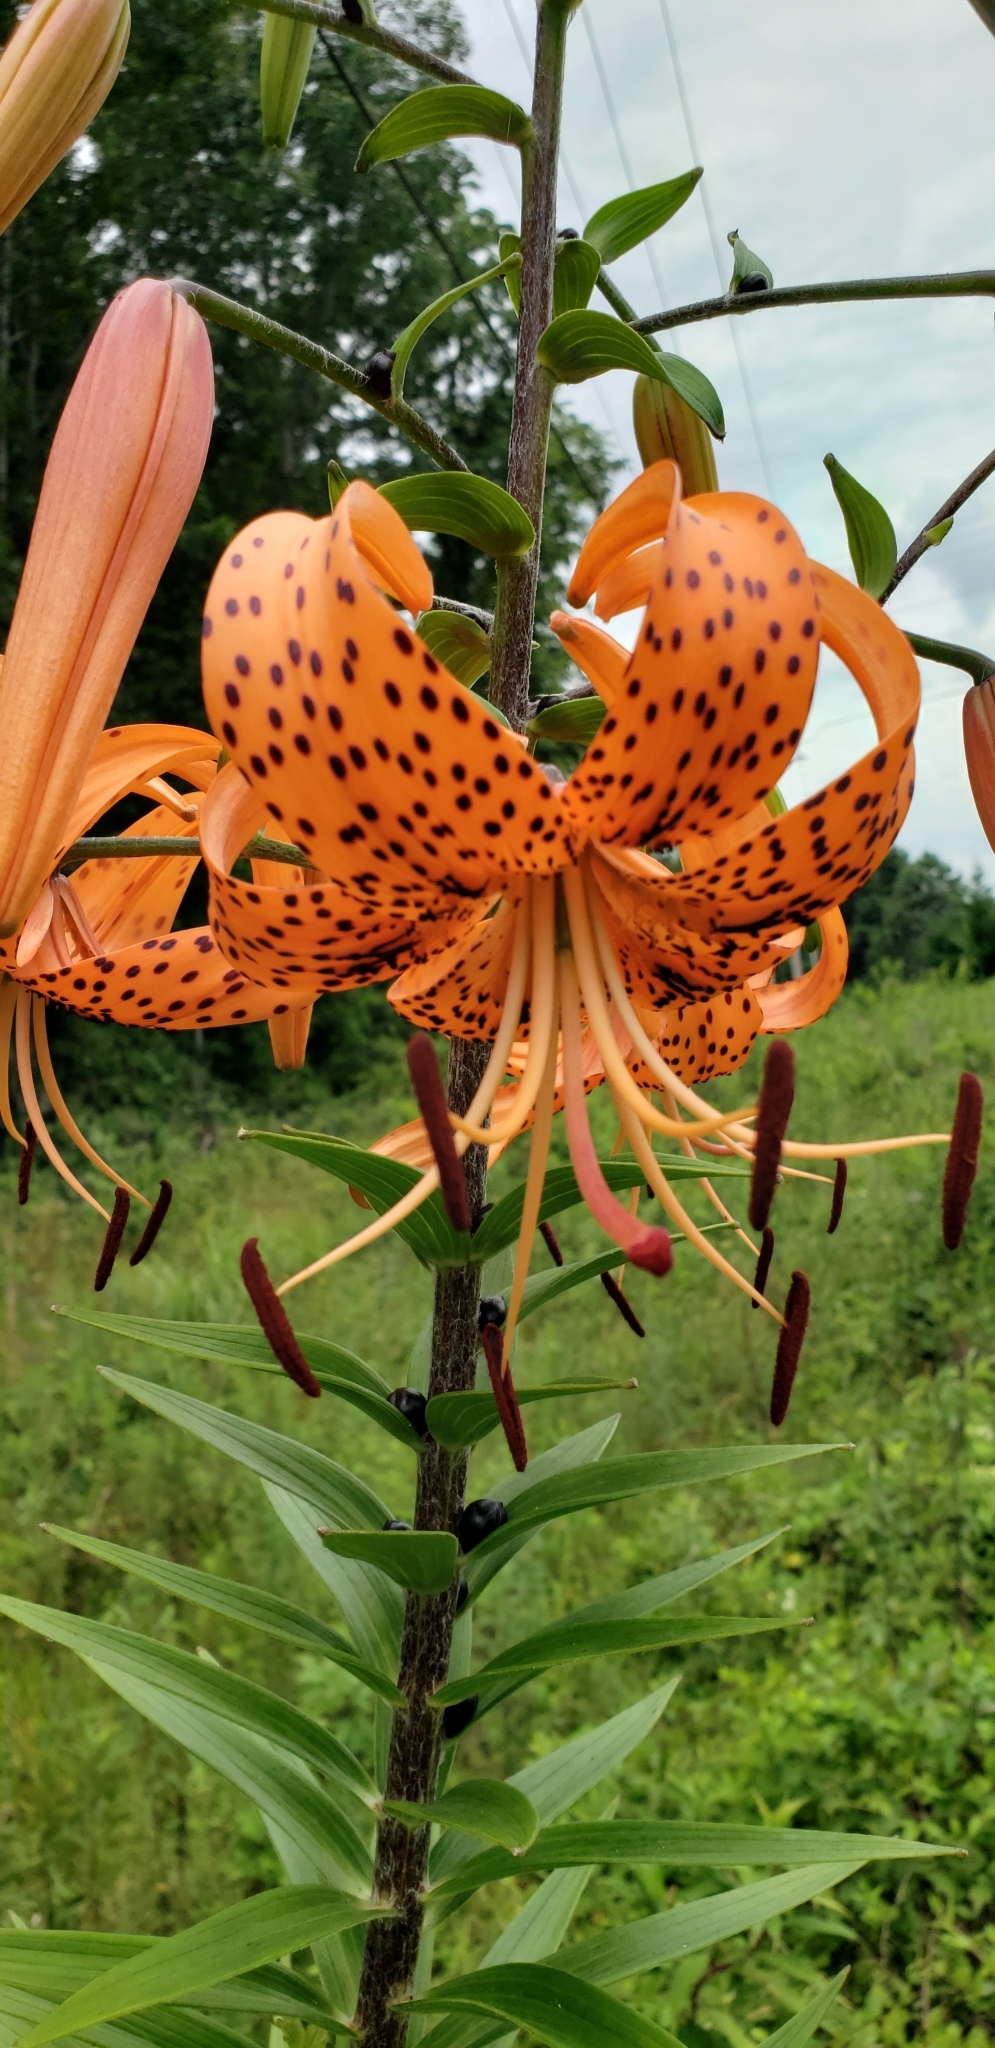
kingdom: Plantae
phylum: Tracheophyta
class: Liliopsida
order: Liliales
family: Liliaceae
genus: Lilium
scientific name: Lilium lancifolium
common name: Tiger lily
